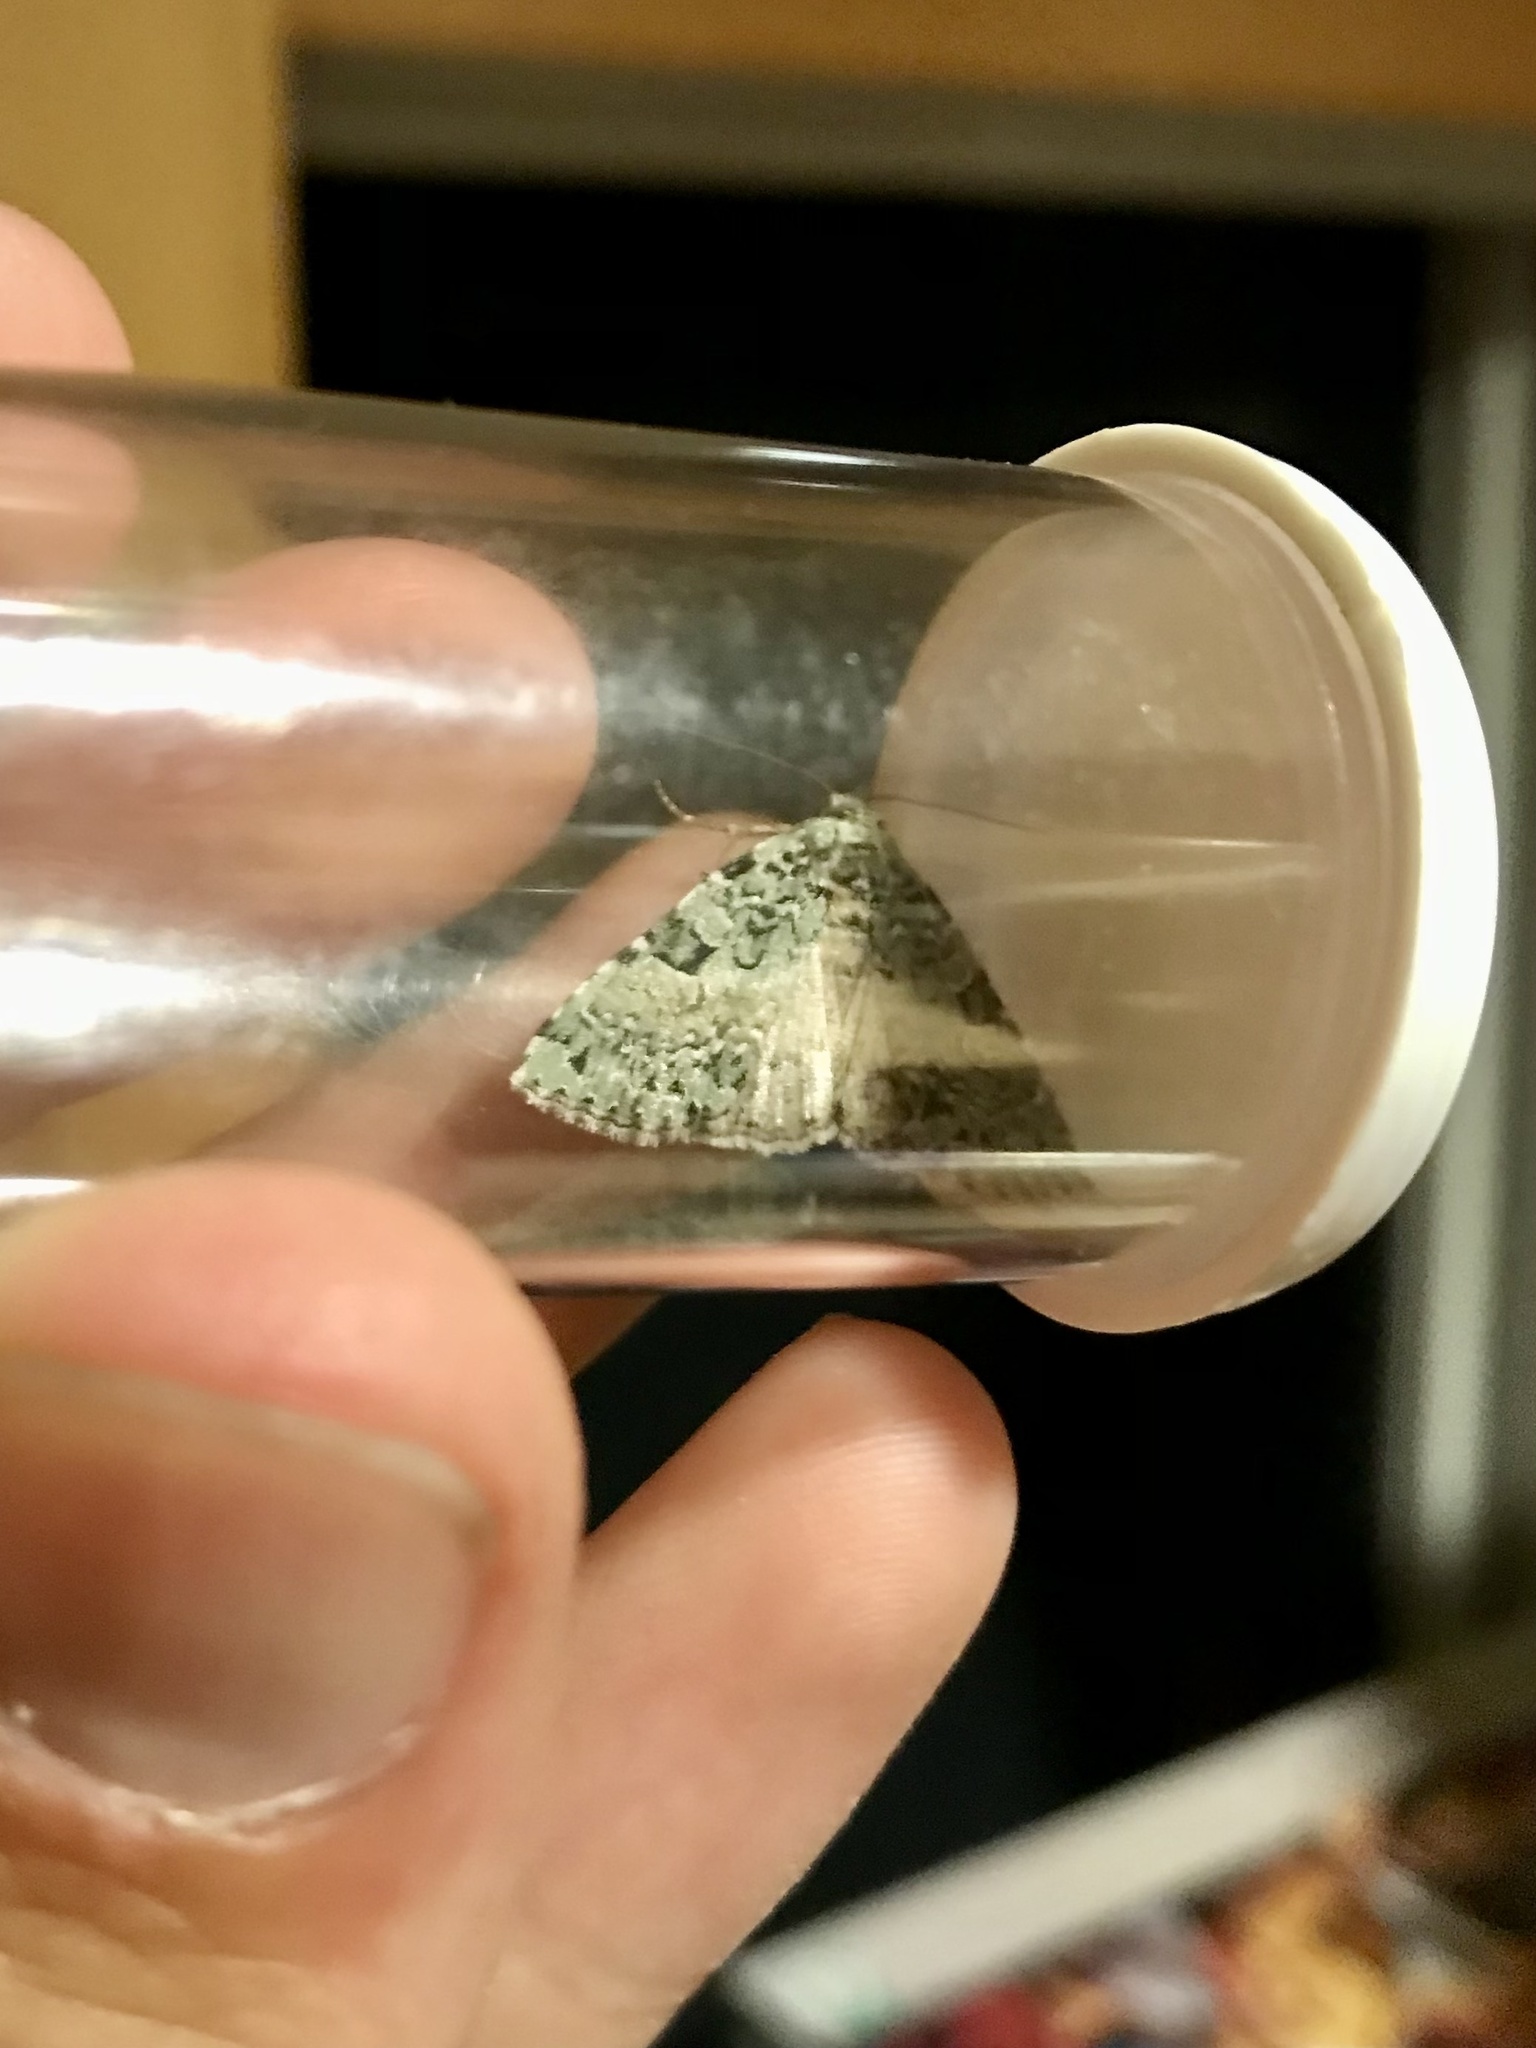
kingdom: Animalia
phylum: Arthropoda
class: Insecta
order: Lepidoptera
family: Noctuidae
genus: Leuconycta
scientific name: Leuconycta diphteroides
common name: Green leuconycta moth
